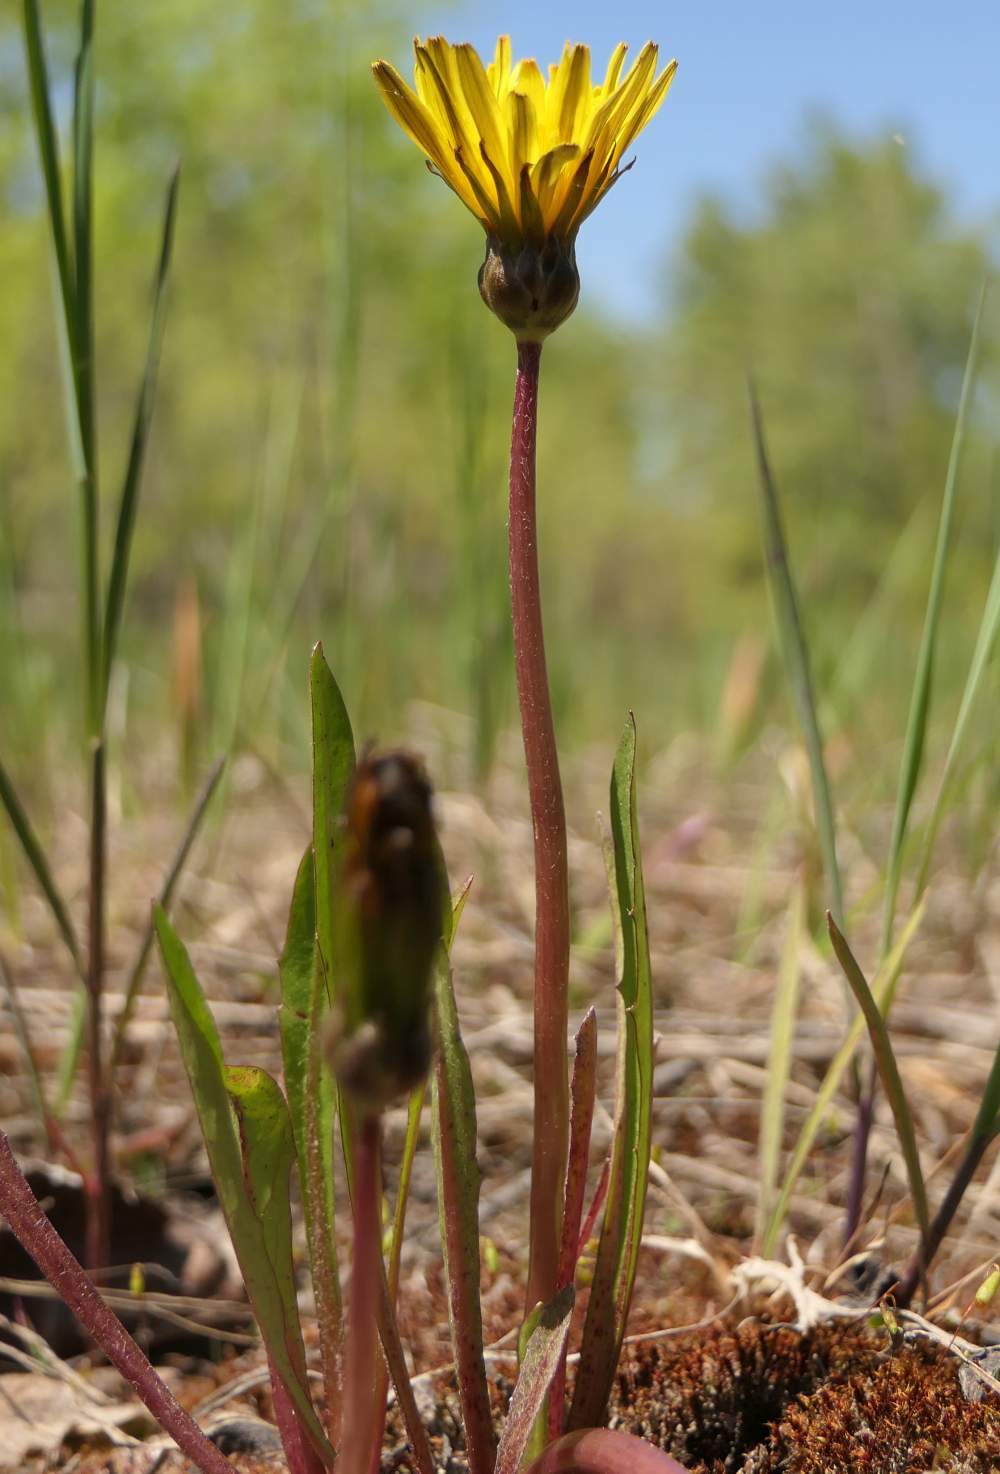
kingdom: Plantae
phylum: Tracheophyta
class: Magnoliopsida
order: Asterales
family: Asteraceae
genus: Taraxacum
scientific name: Taraxacum palustre
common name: Marsh dandelion
